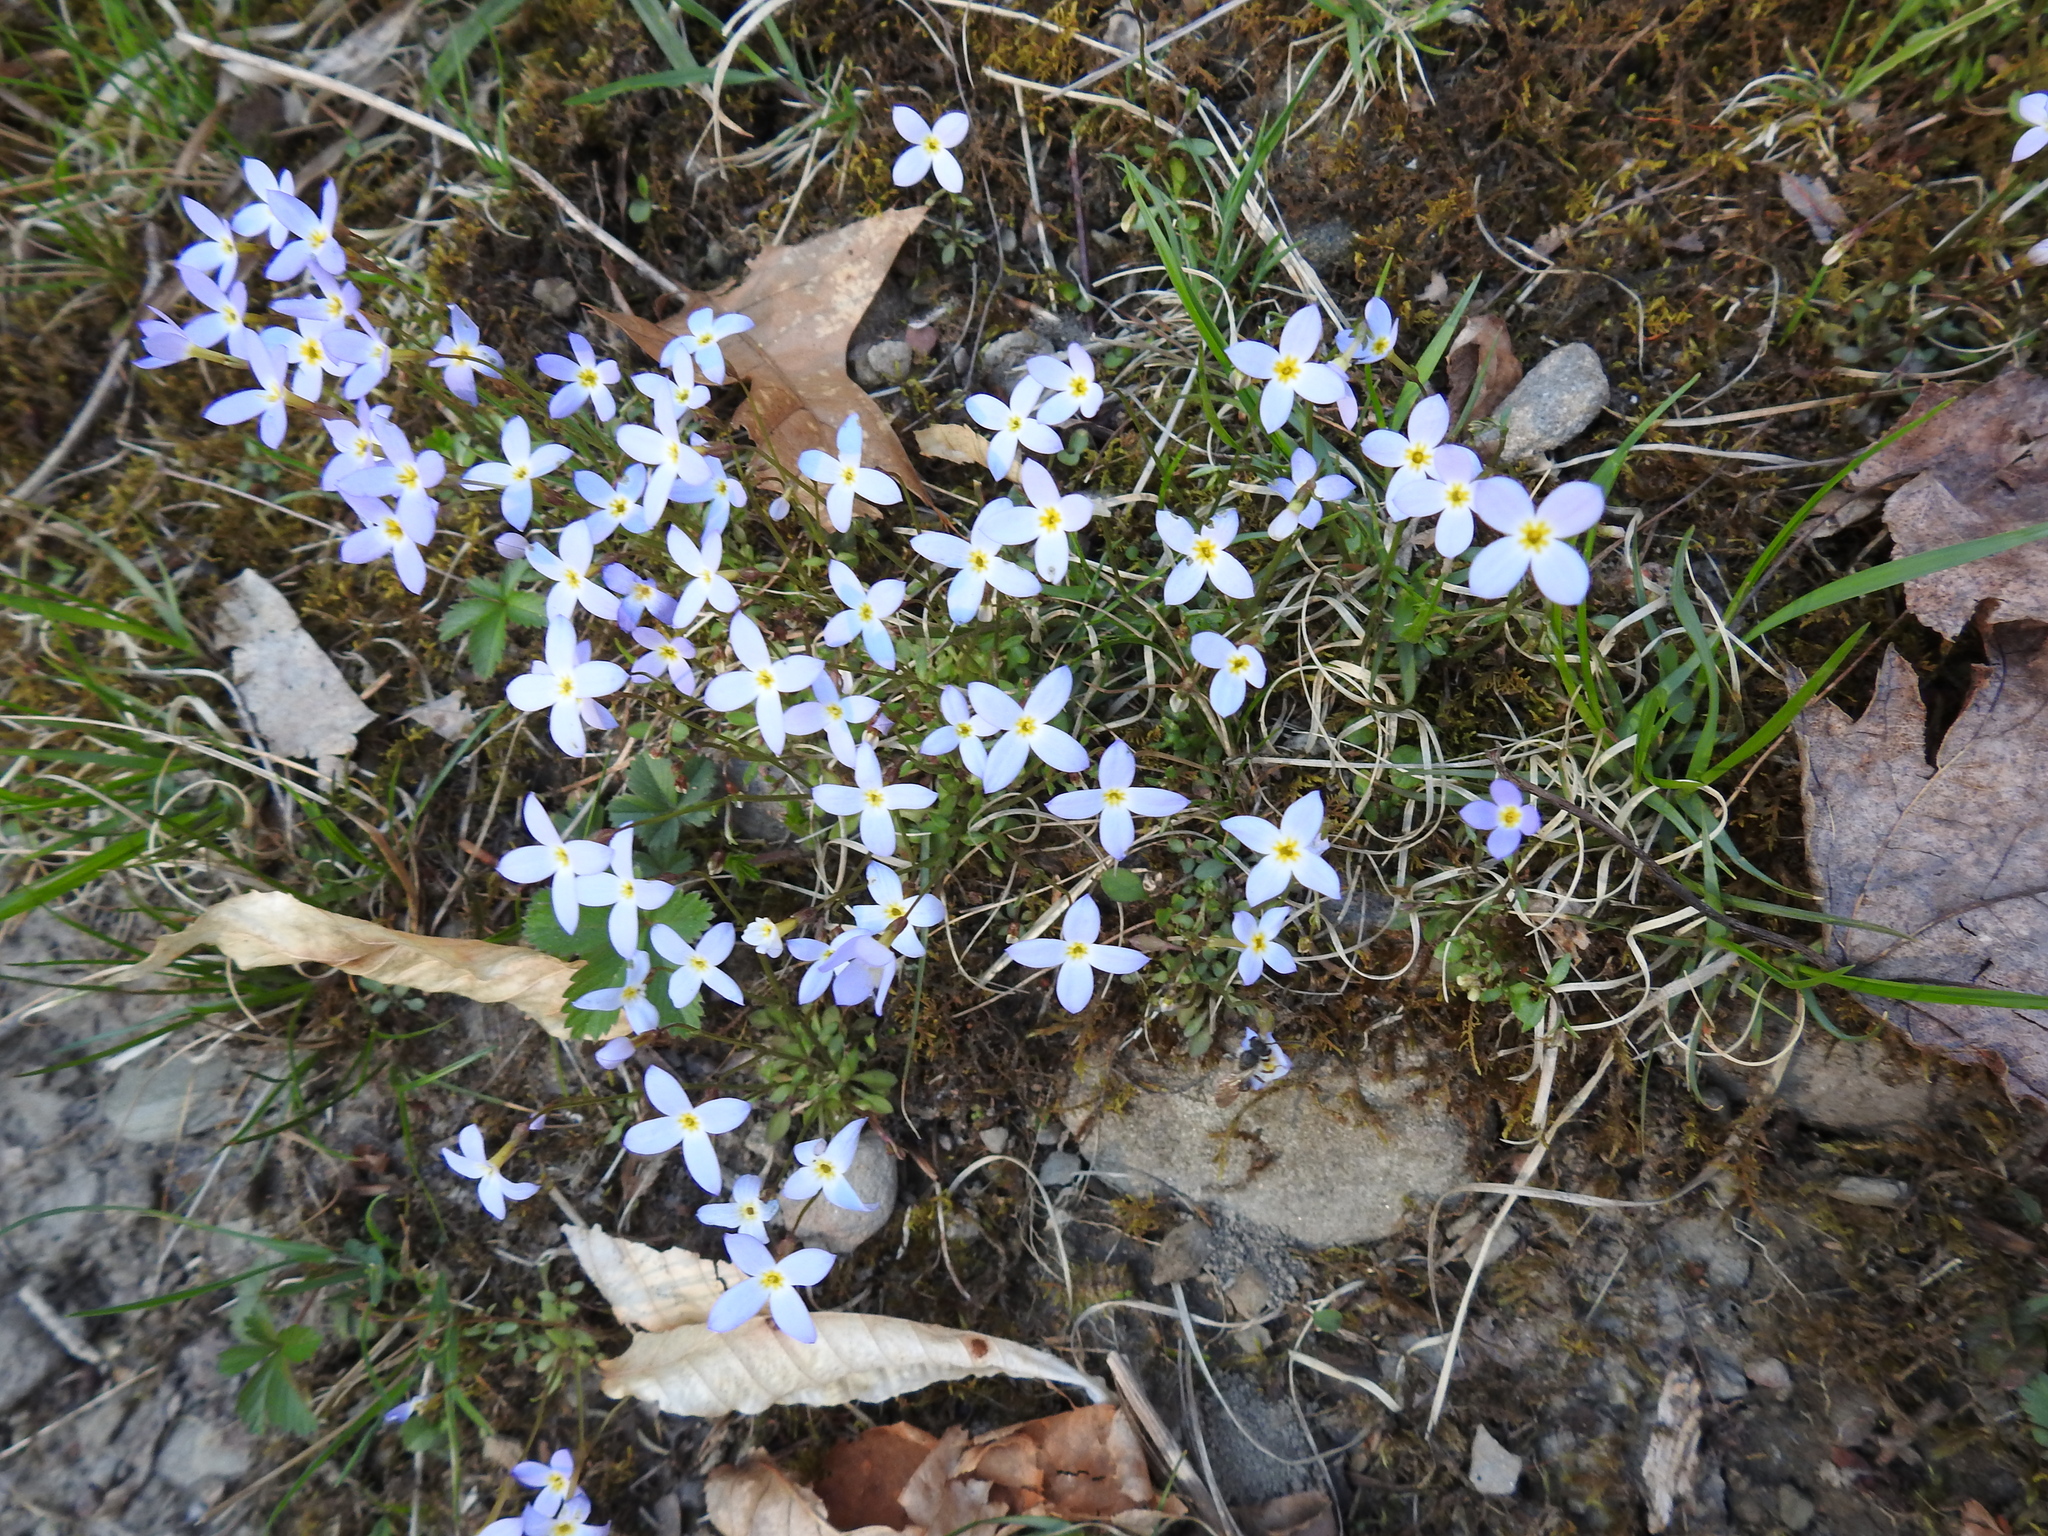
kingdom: Plantae
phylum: Tracheophyta
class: Magnoliopsida
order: Gentianales
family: Rubiaceae
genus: Houstonia
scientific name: Houstonia caerulea
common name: Bluets
